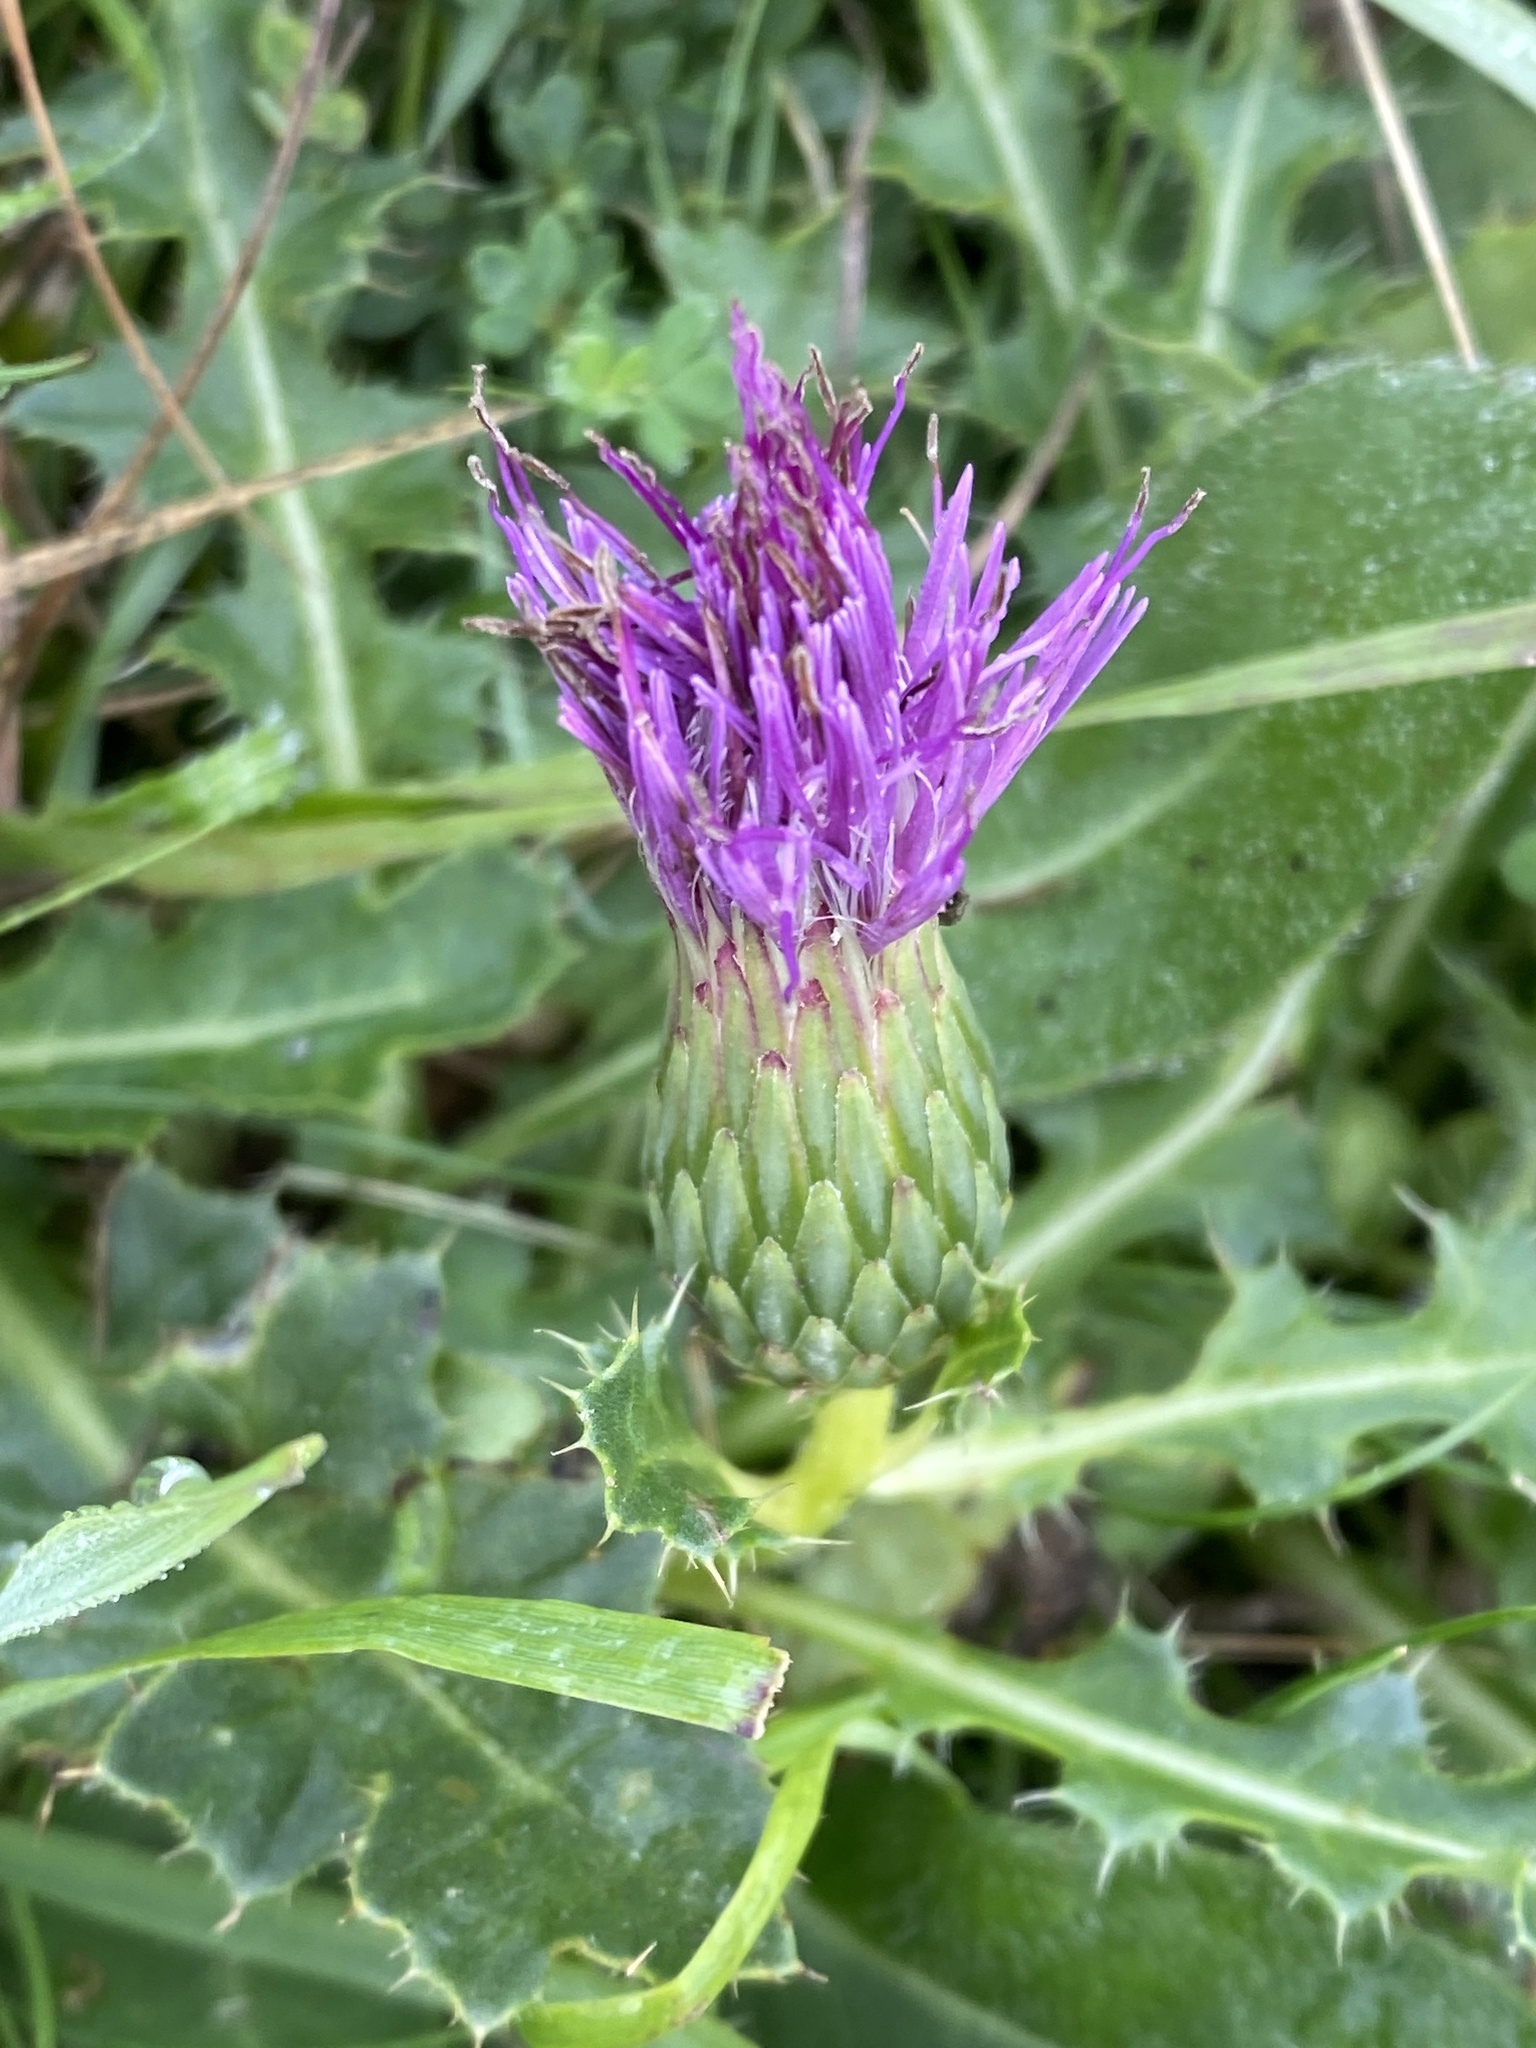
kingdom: Plantae
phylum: Tracheophyta
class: Magnoliopsida
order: Asterales
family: Asteraceae
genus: Cirsium
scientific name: Cirsium acaulon
